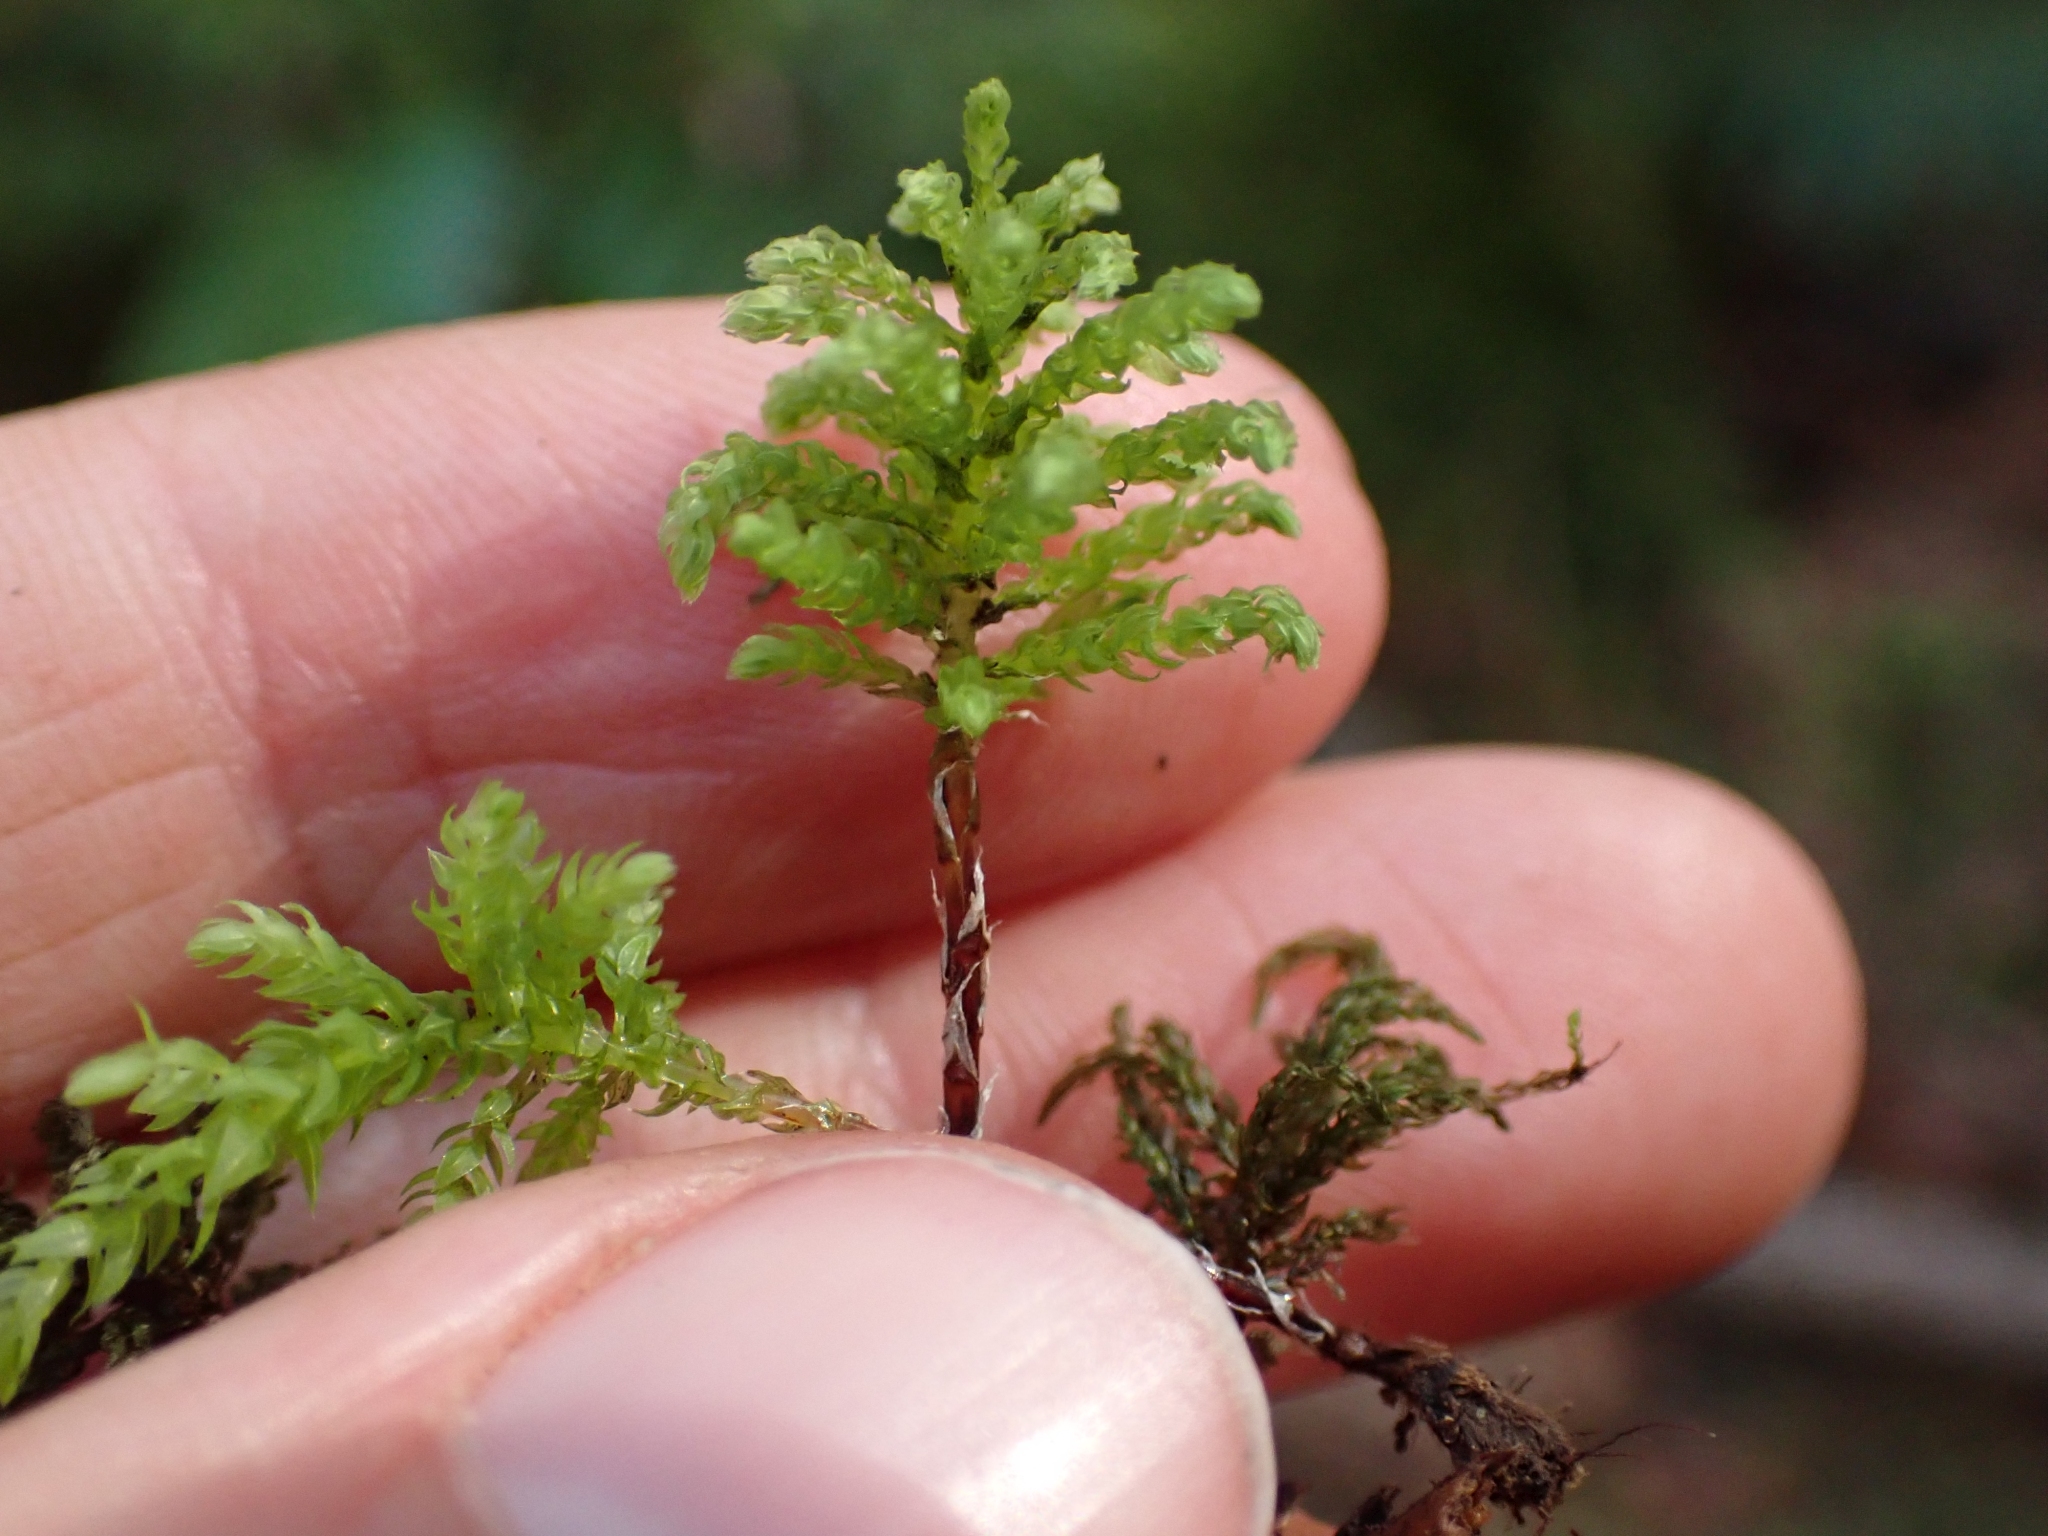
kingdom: Plantae
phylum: Bryophyta
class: Bryopsida
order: Bryales
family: Mniaceae
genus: Leucolepis
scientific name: Leucolepis acanthoneura
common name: Leucolepis umbrella moss
